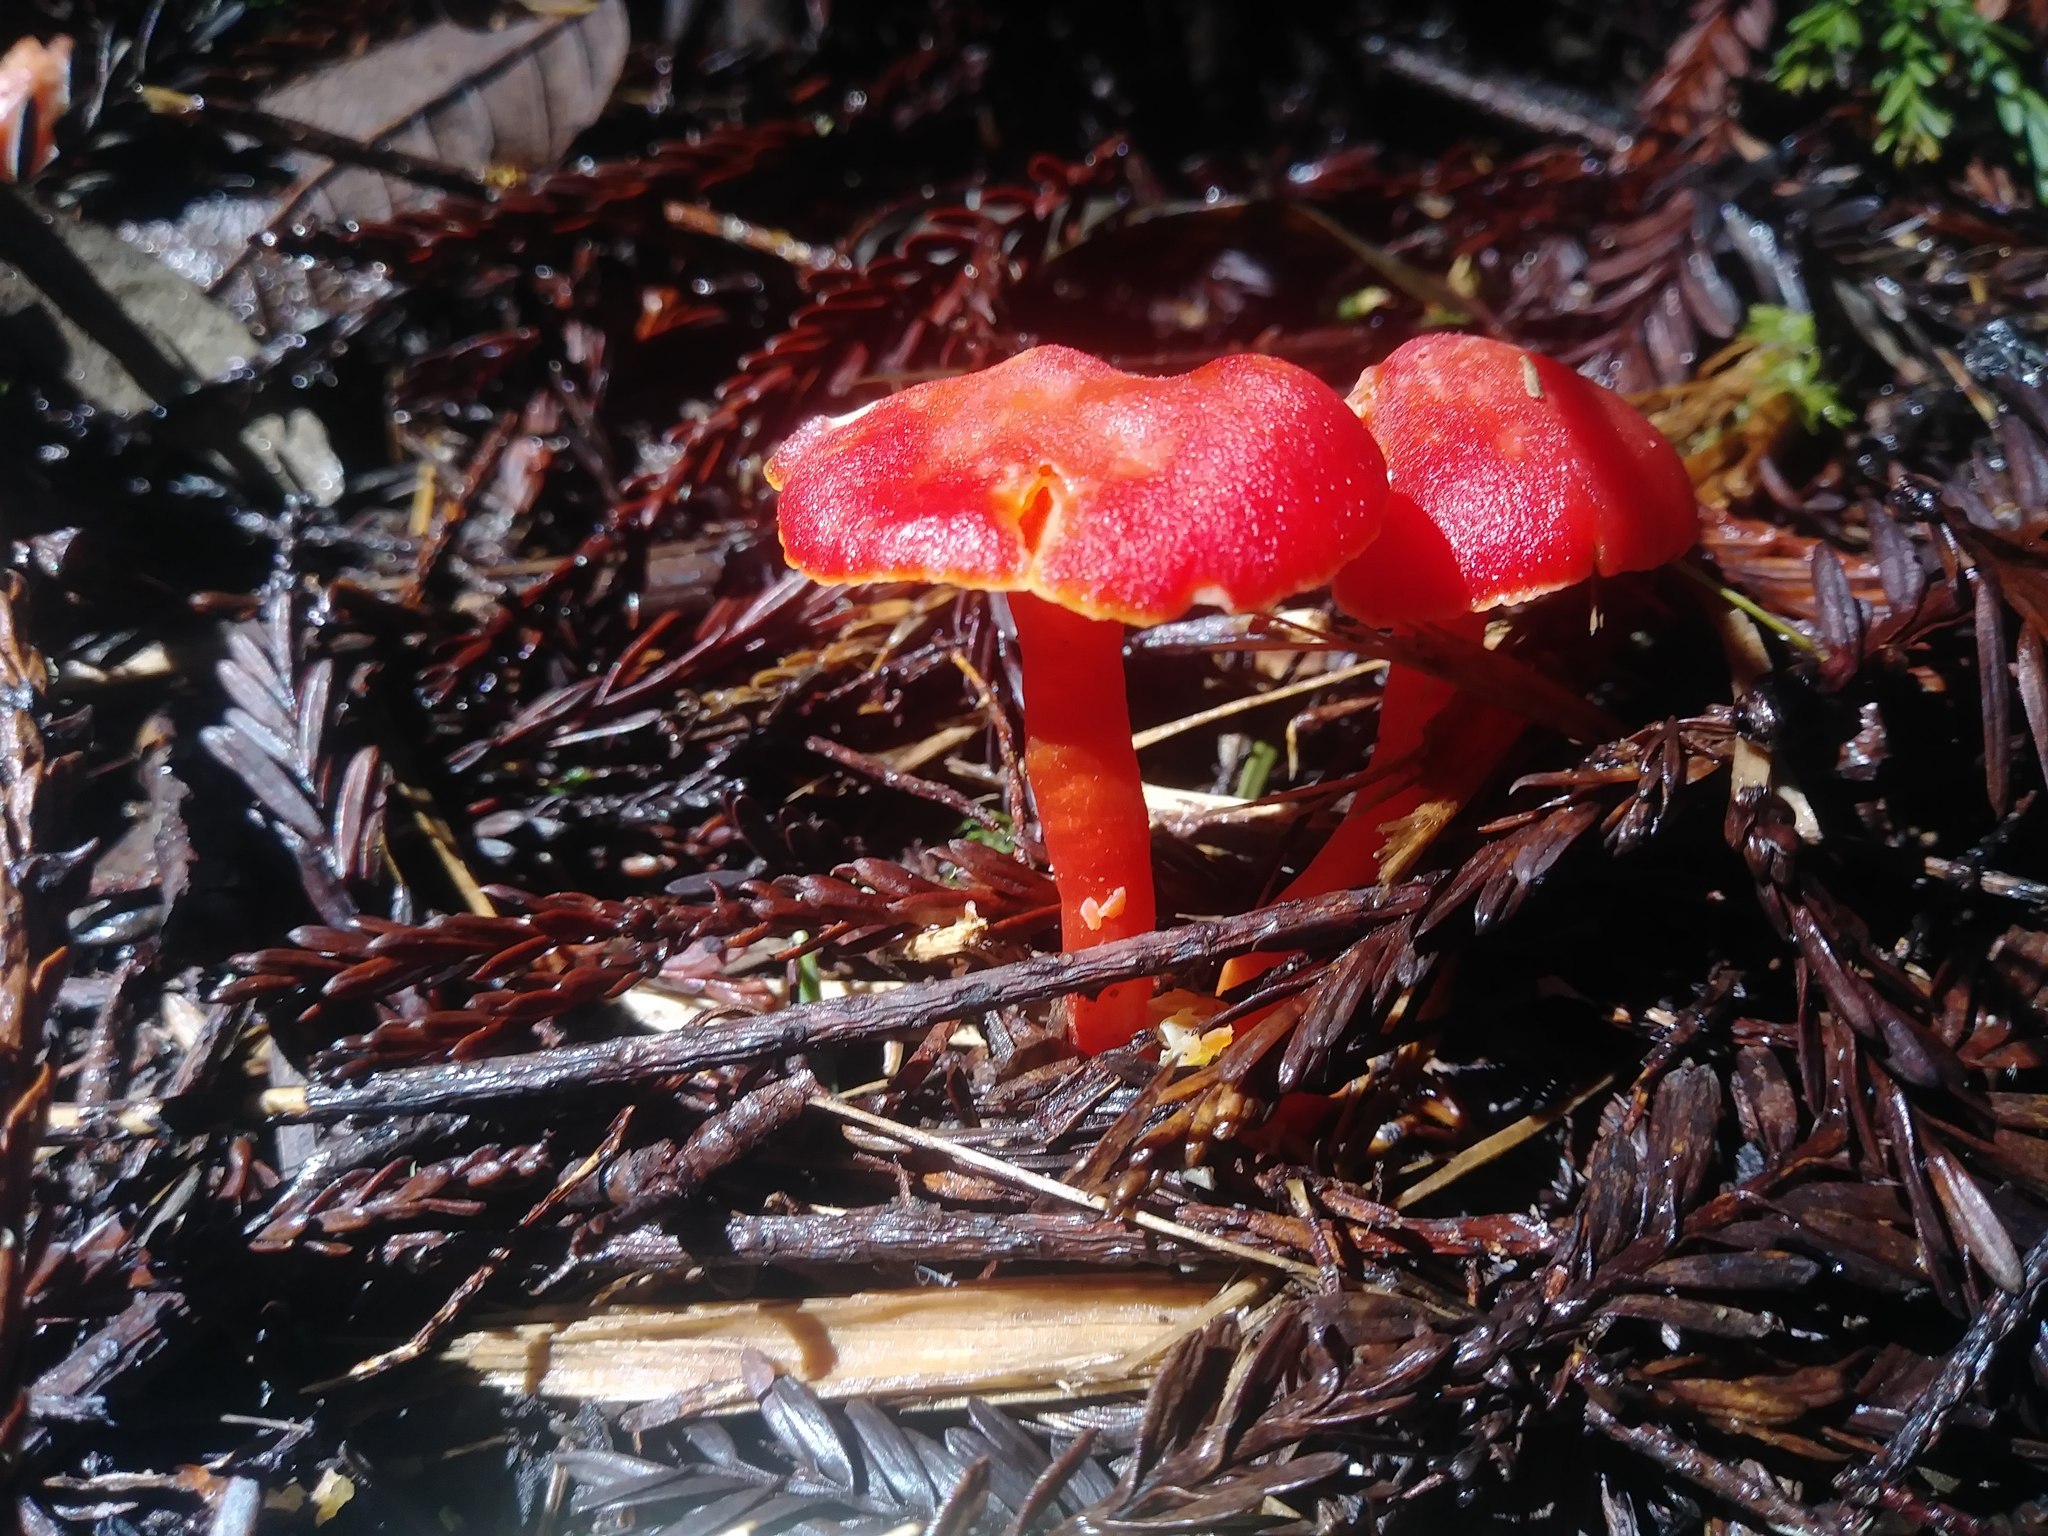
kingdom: Fungi
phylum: Basidiomycota
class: Agaricomycetes
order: Agaricales
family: Hygrophoraceae
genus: Hygrocybe
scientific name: Hygrocybe coccinea
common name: Scarlet hood
